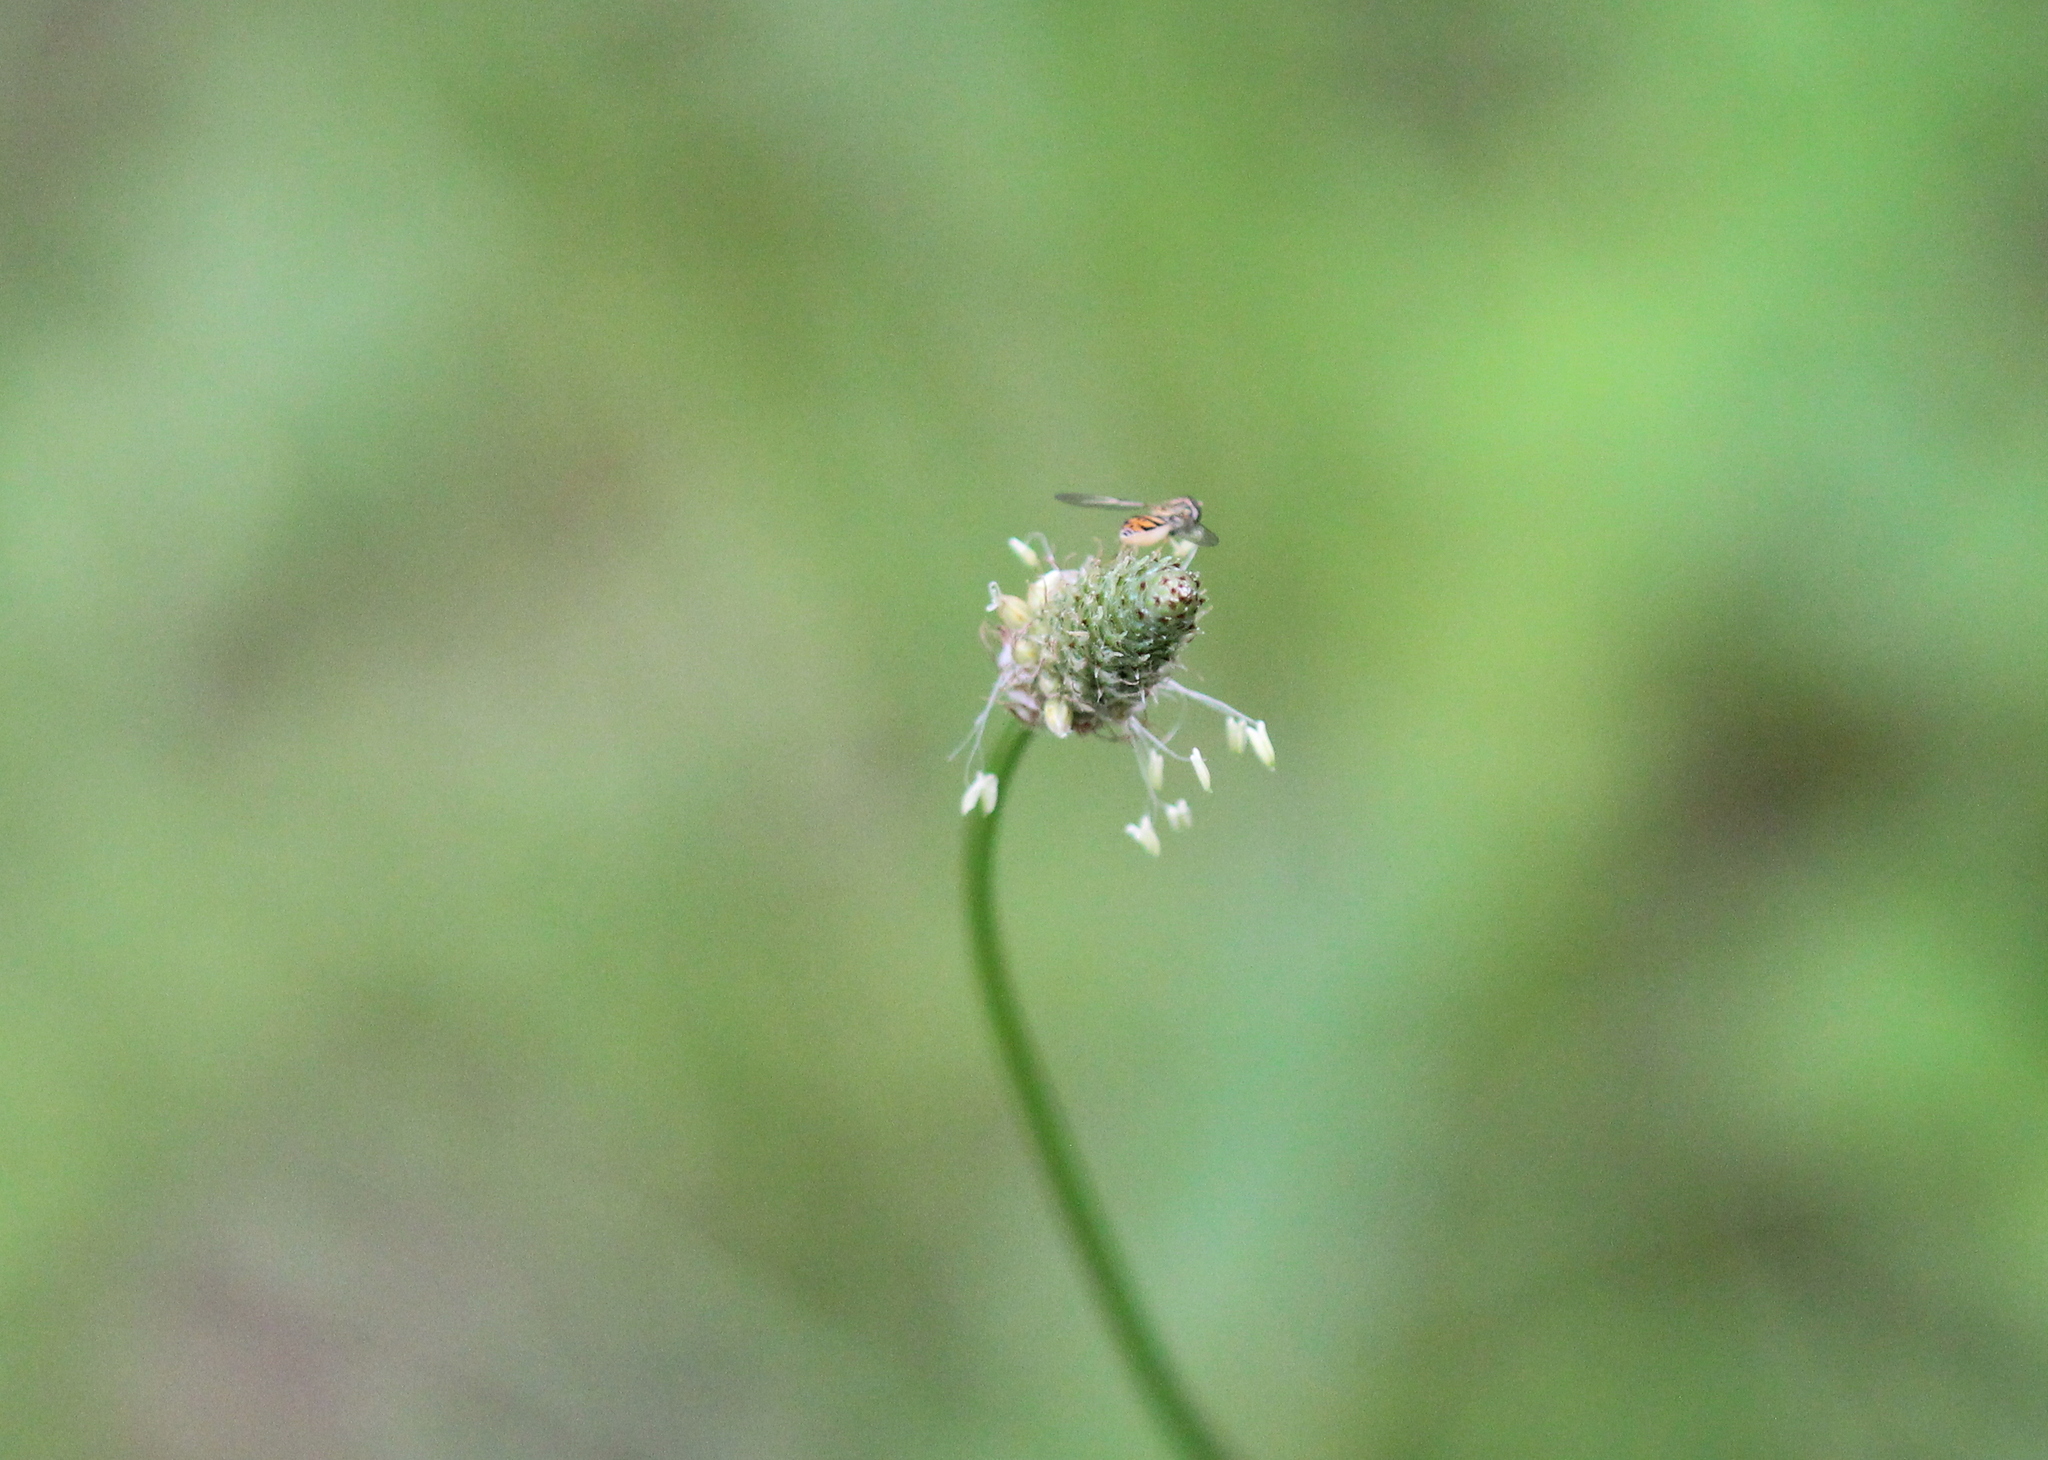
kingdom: Plantae
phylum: Tracheophyta
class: Magnoliopsida
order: Lamiales
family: Plantaginaceae
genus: Plantago
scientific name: Plantago lanceolata
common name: Ribwort plantain
